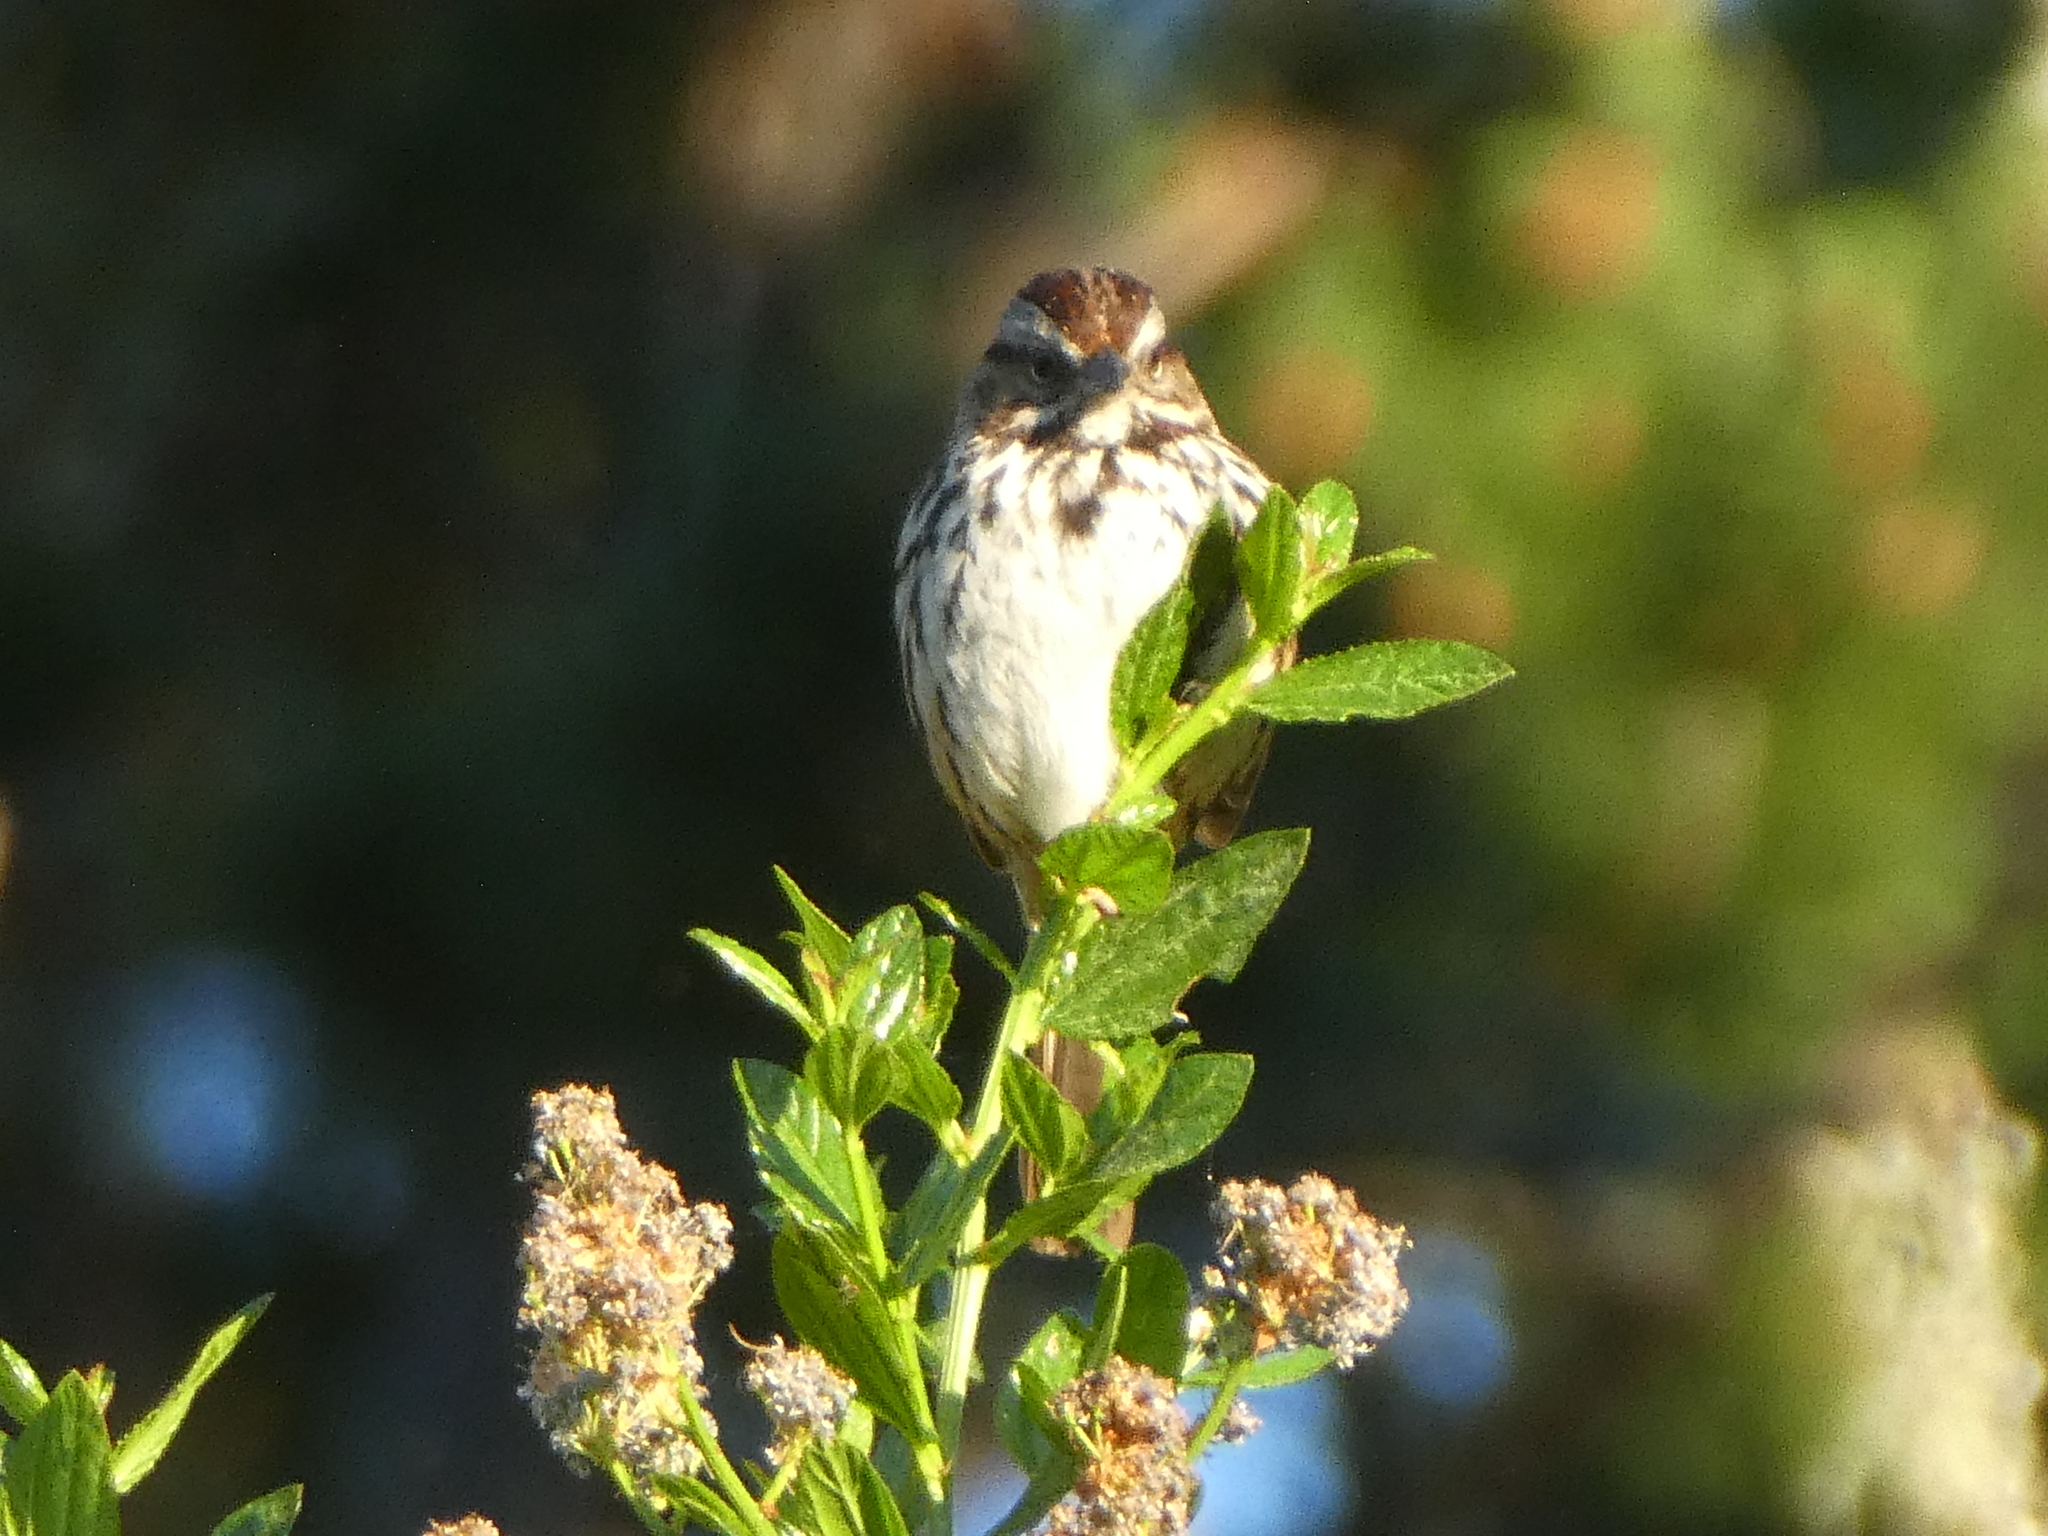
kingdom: Animalia
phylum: Chordata
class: Aves
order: Passeriformes
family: Passerellidae
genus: Melospiza
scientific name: Melospiza melodia
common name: Song sparrow
